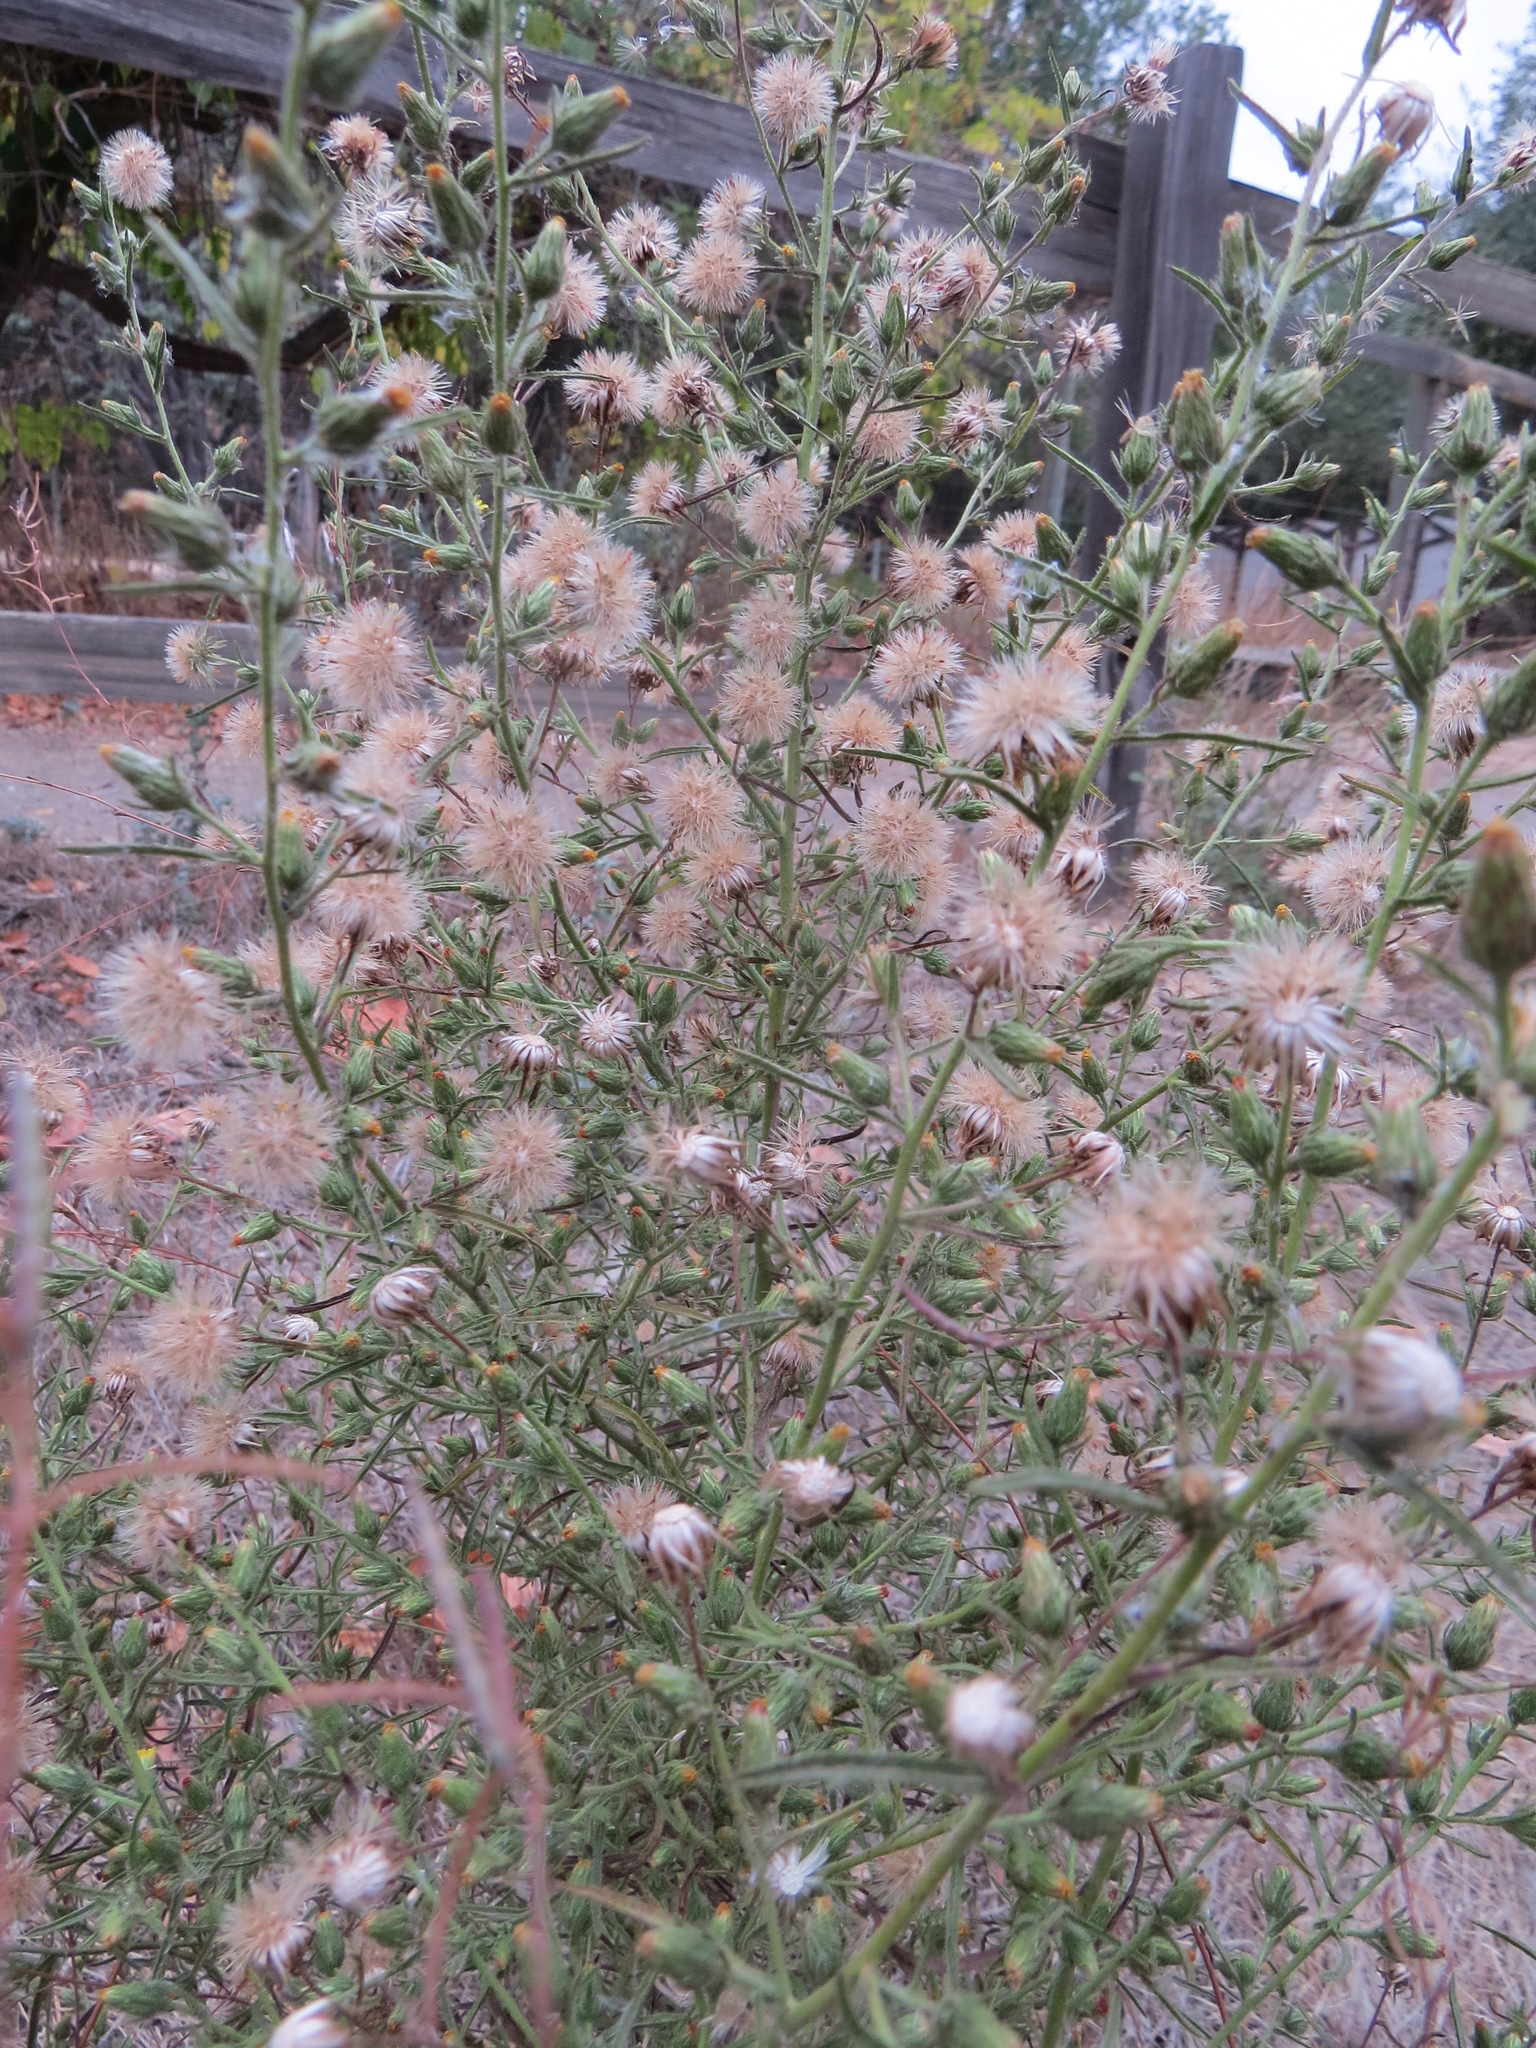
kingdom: Plantae
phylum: Tracheophyta
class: Magnoliopsida
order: Asterales
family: Asteraceae
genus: Dittrichia
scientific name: Dittrichia graveolens
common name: Stinking fleabane
